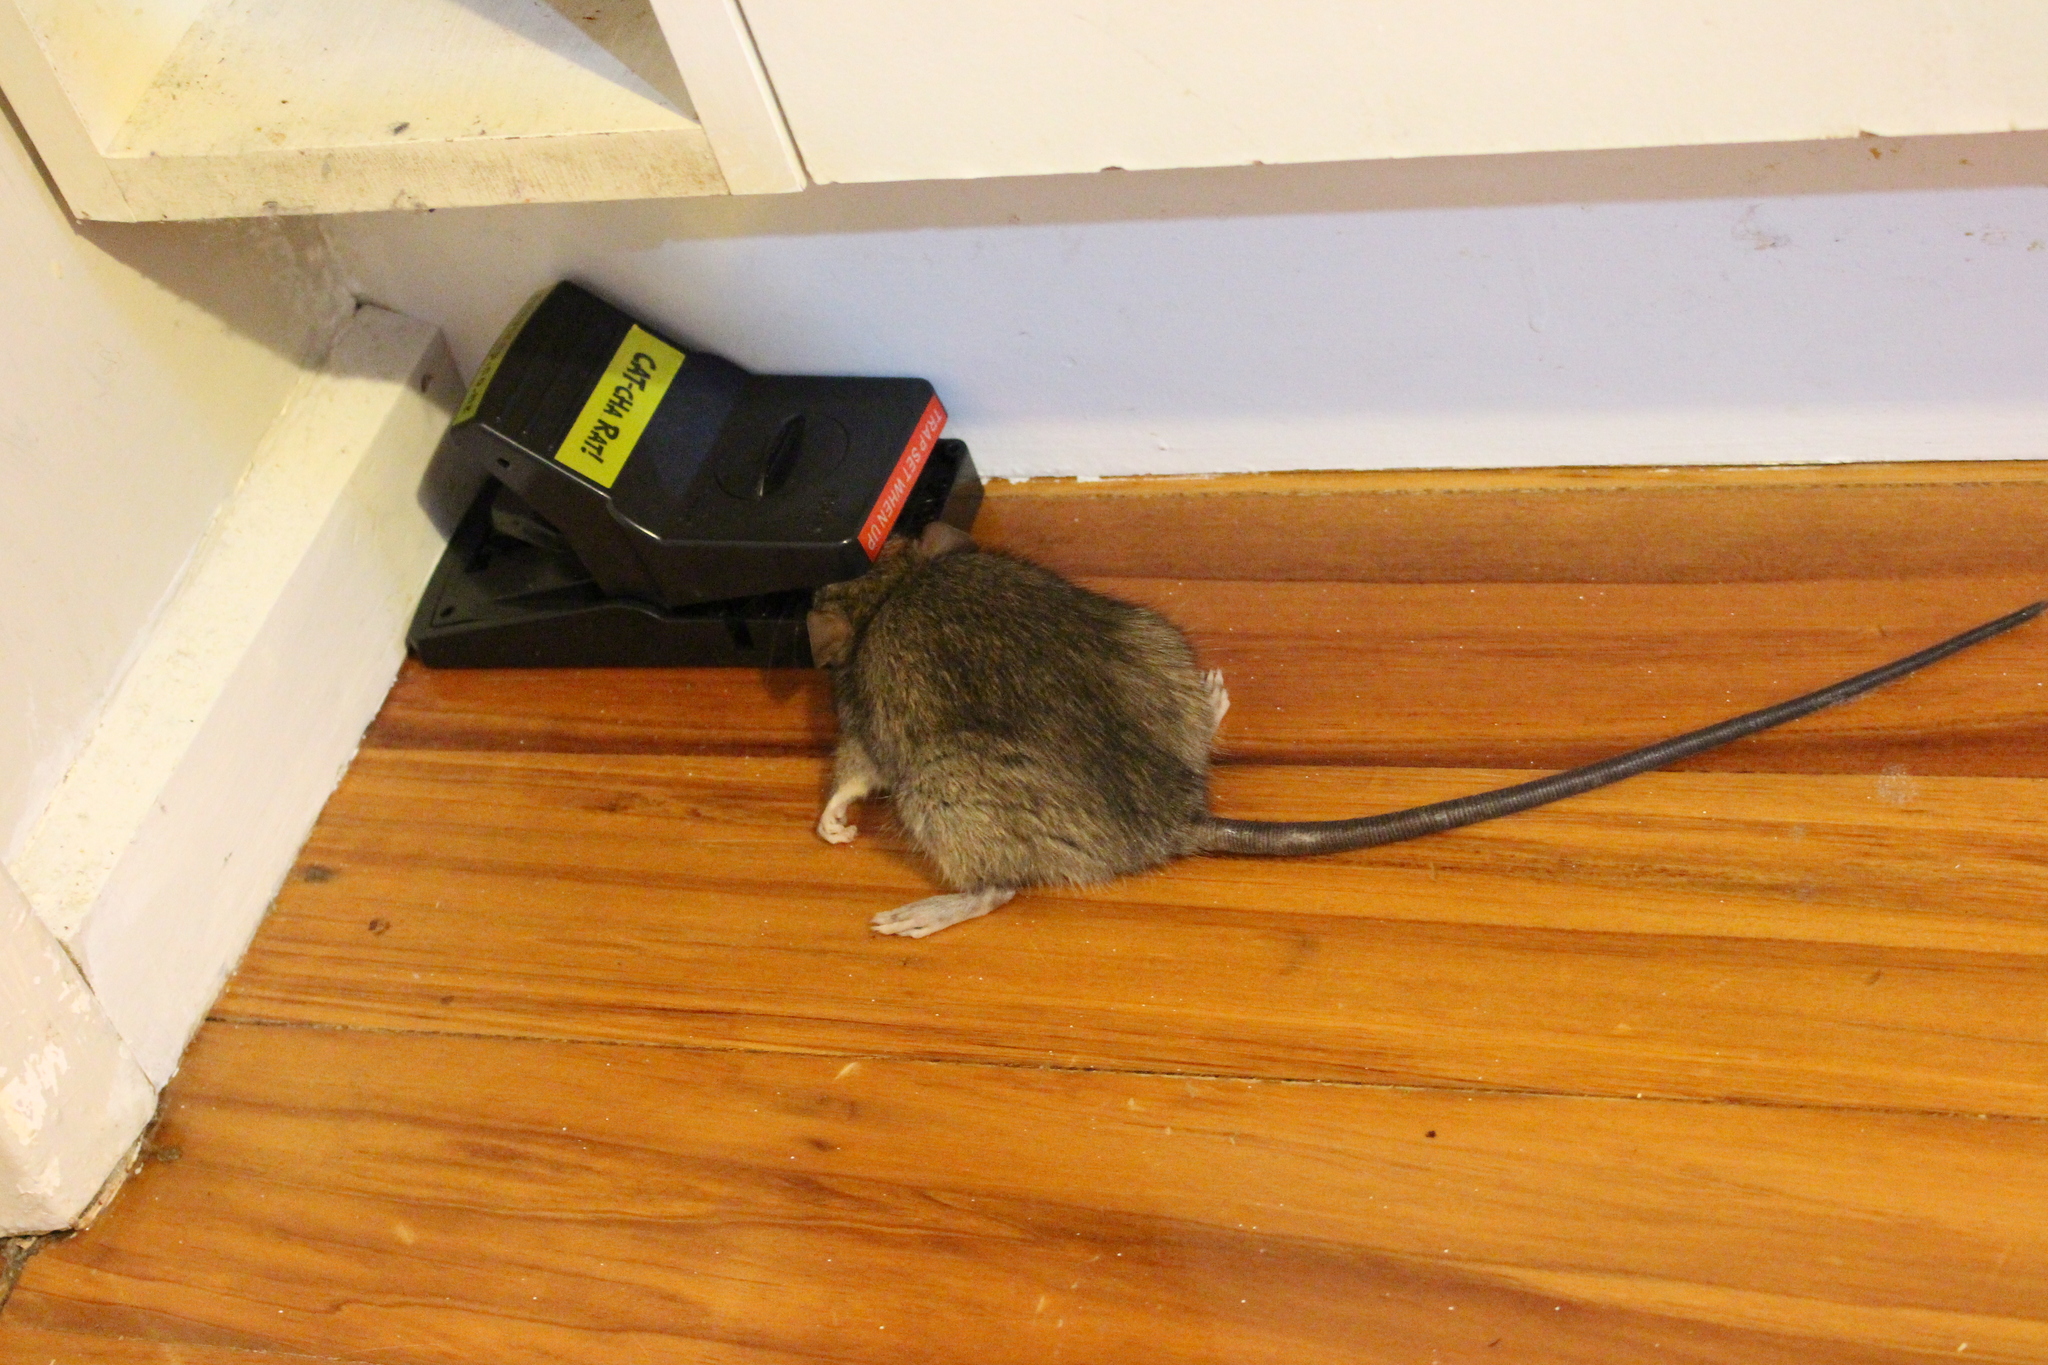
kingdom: Animalia
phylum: Chordata
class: Mammalia
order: Rodentia
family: Muridae
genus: Rattus
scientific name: Rattus rattus
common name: Black rat
